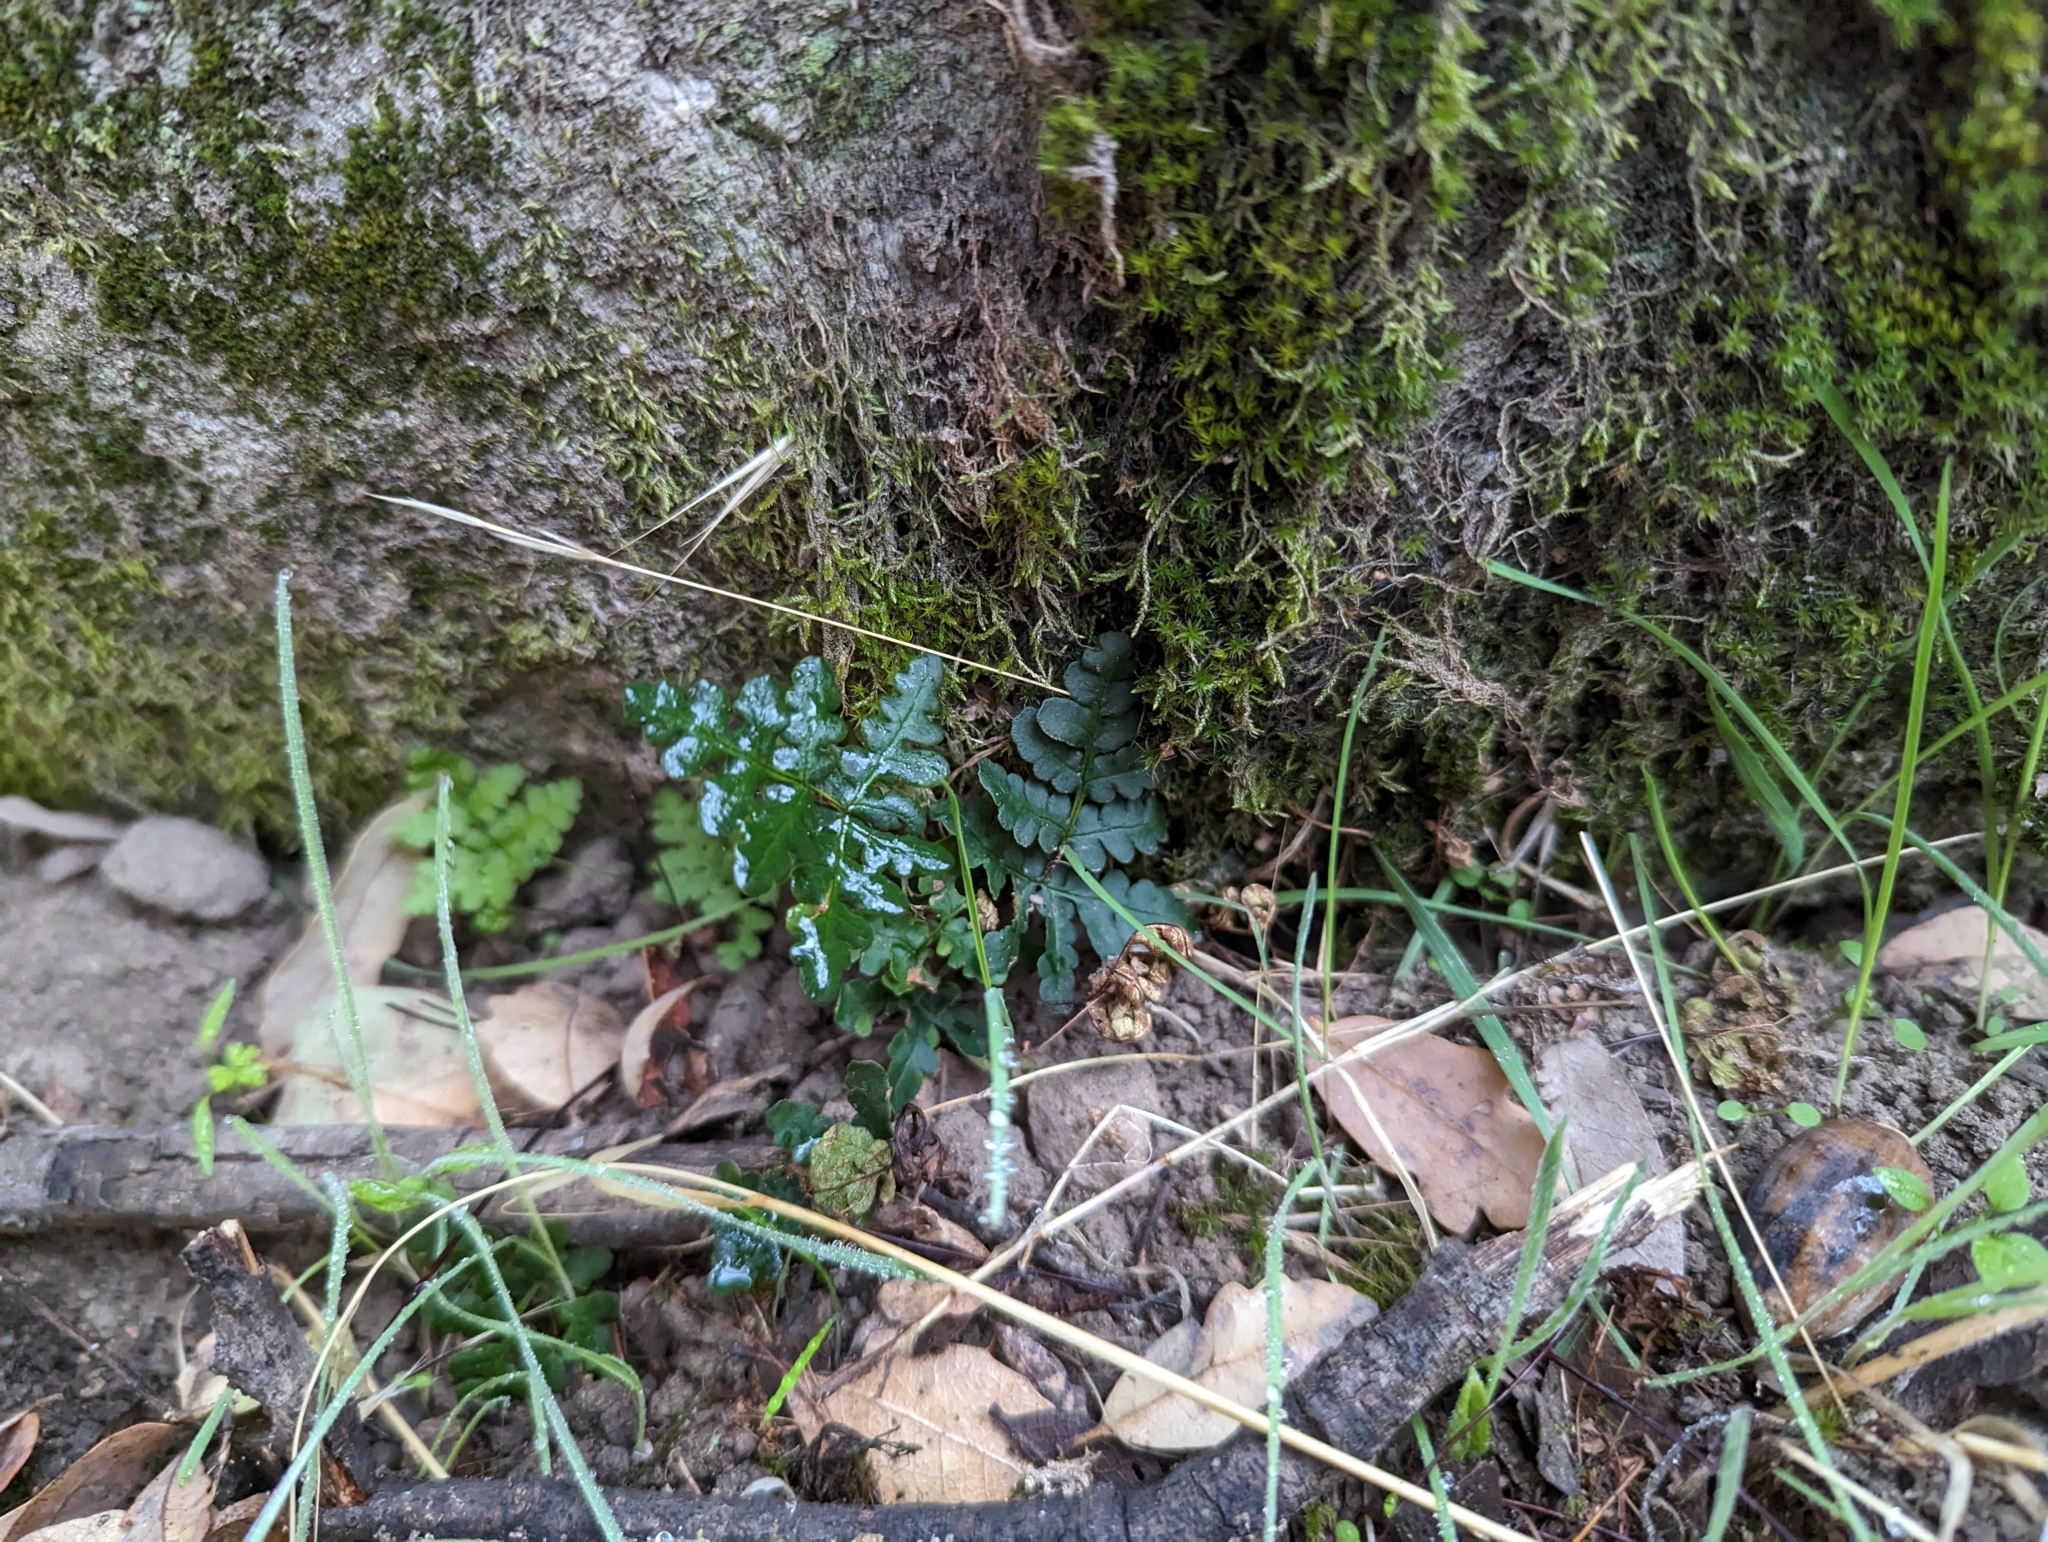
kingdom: Plantae
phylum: Tracheophyta
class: Polypodiopsida
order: Polypodiales
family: Pteridaceae
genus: Pentagramma
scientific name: Pentagramma triangularis
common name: Gold fern
